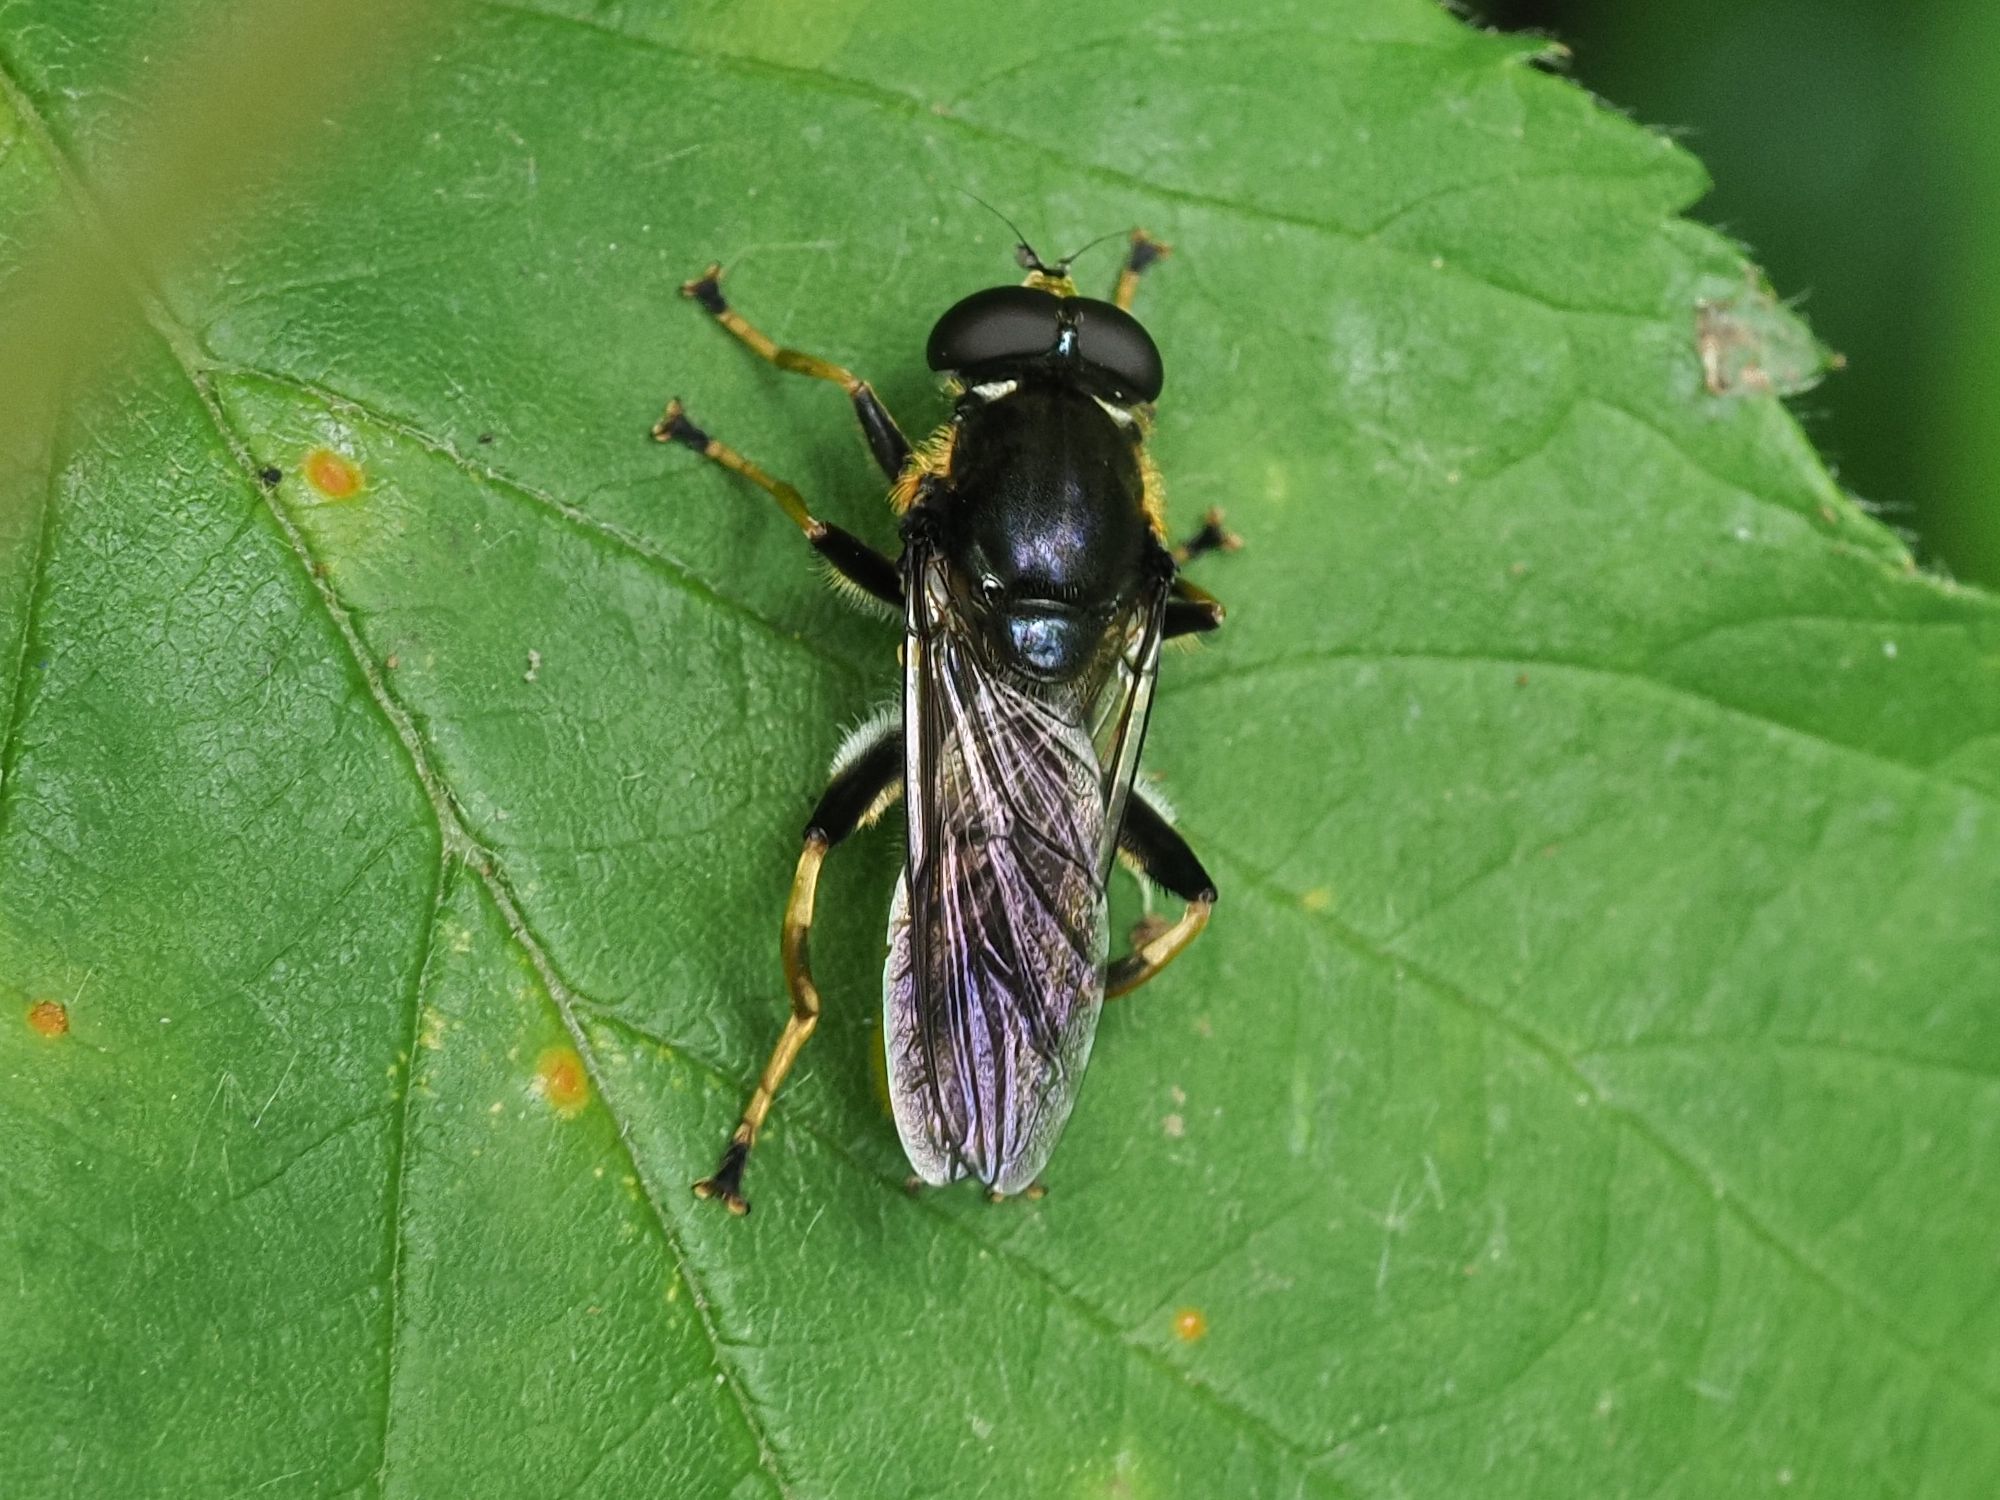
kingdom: Animalia
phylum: Arthropoda
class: Insecta
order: Diptera
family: Syrphidae
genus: Xylota
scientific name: Xylota sylvarum
